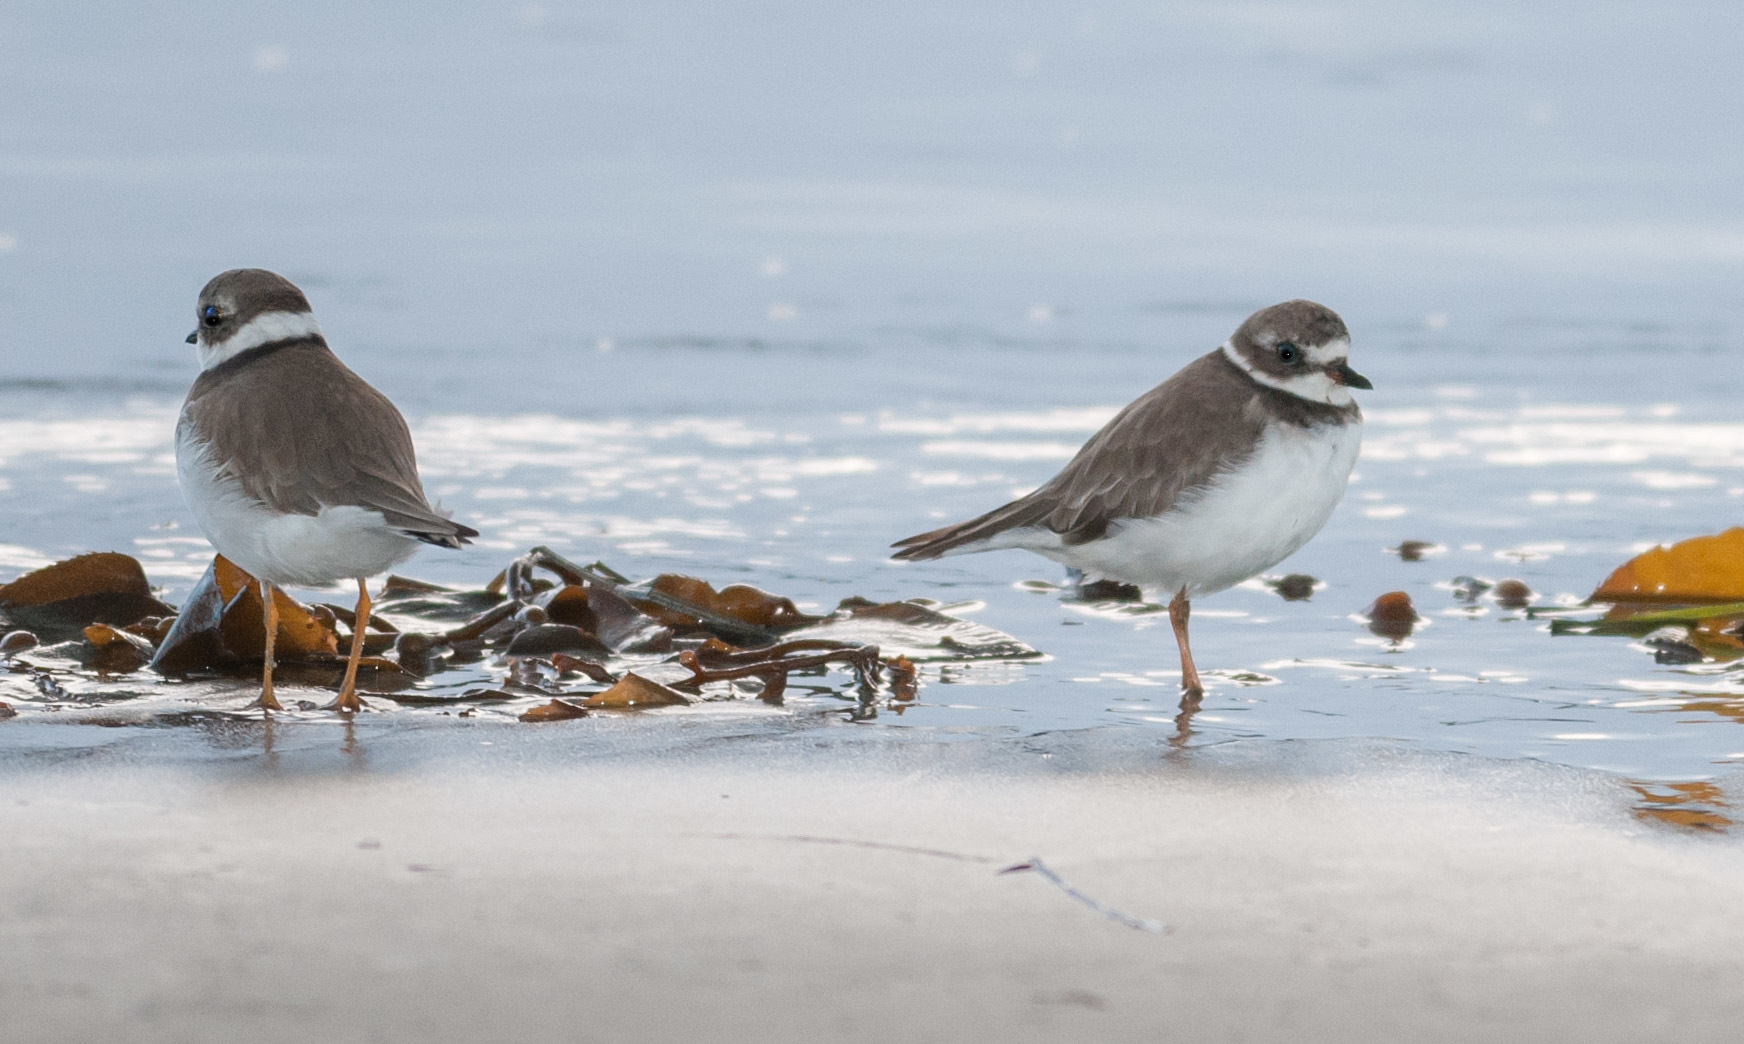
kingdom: Animalia
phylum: Chordata
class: Aves
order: Charadriiformes
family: Charadriidae
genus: Charadrius
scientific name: Charadrius semipalmatus
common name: Semipalmated plover
